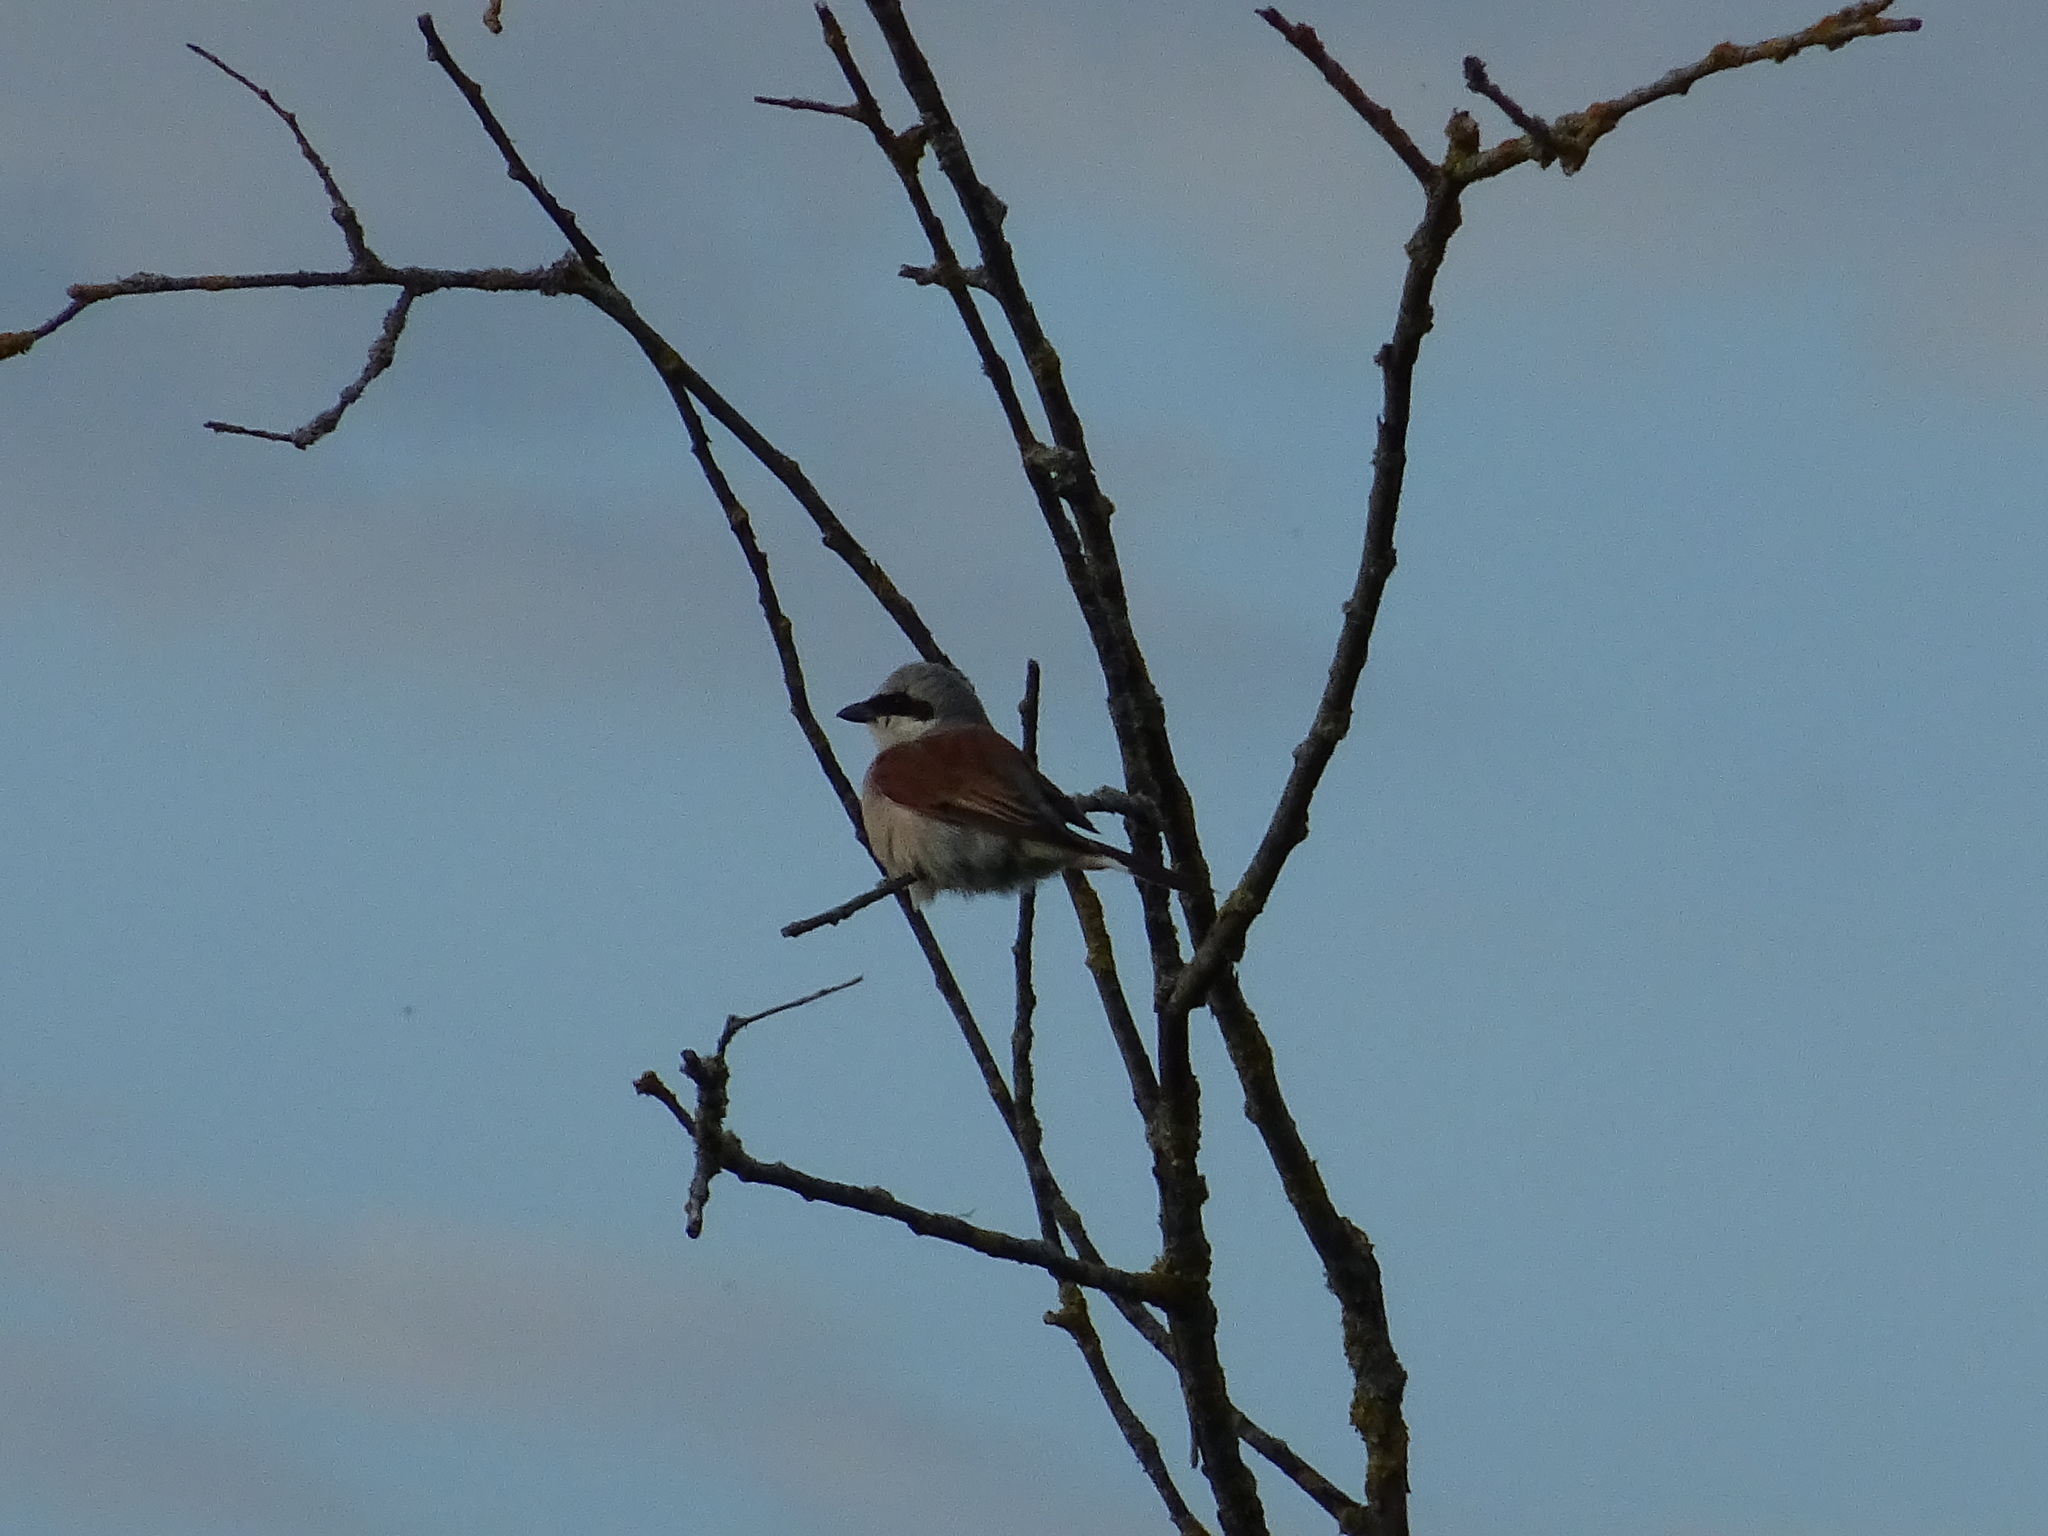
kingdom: Animalia
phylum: Chordata
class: Aves
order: Passeriformes
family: Laniidae
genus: Lanius
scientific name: Lanius collurio
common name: Red-backed shrike
